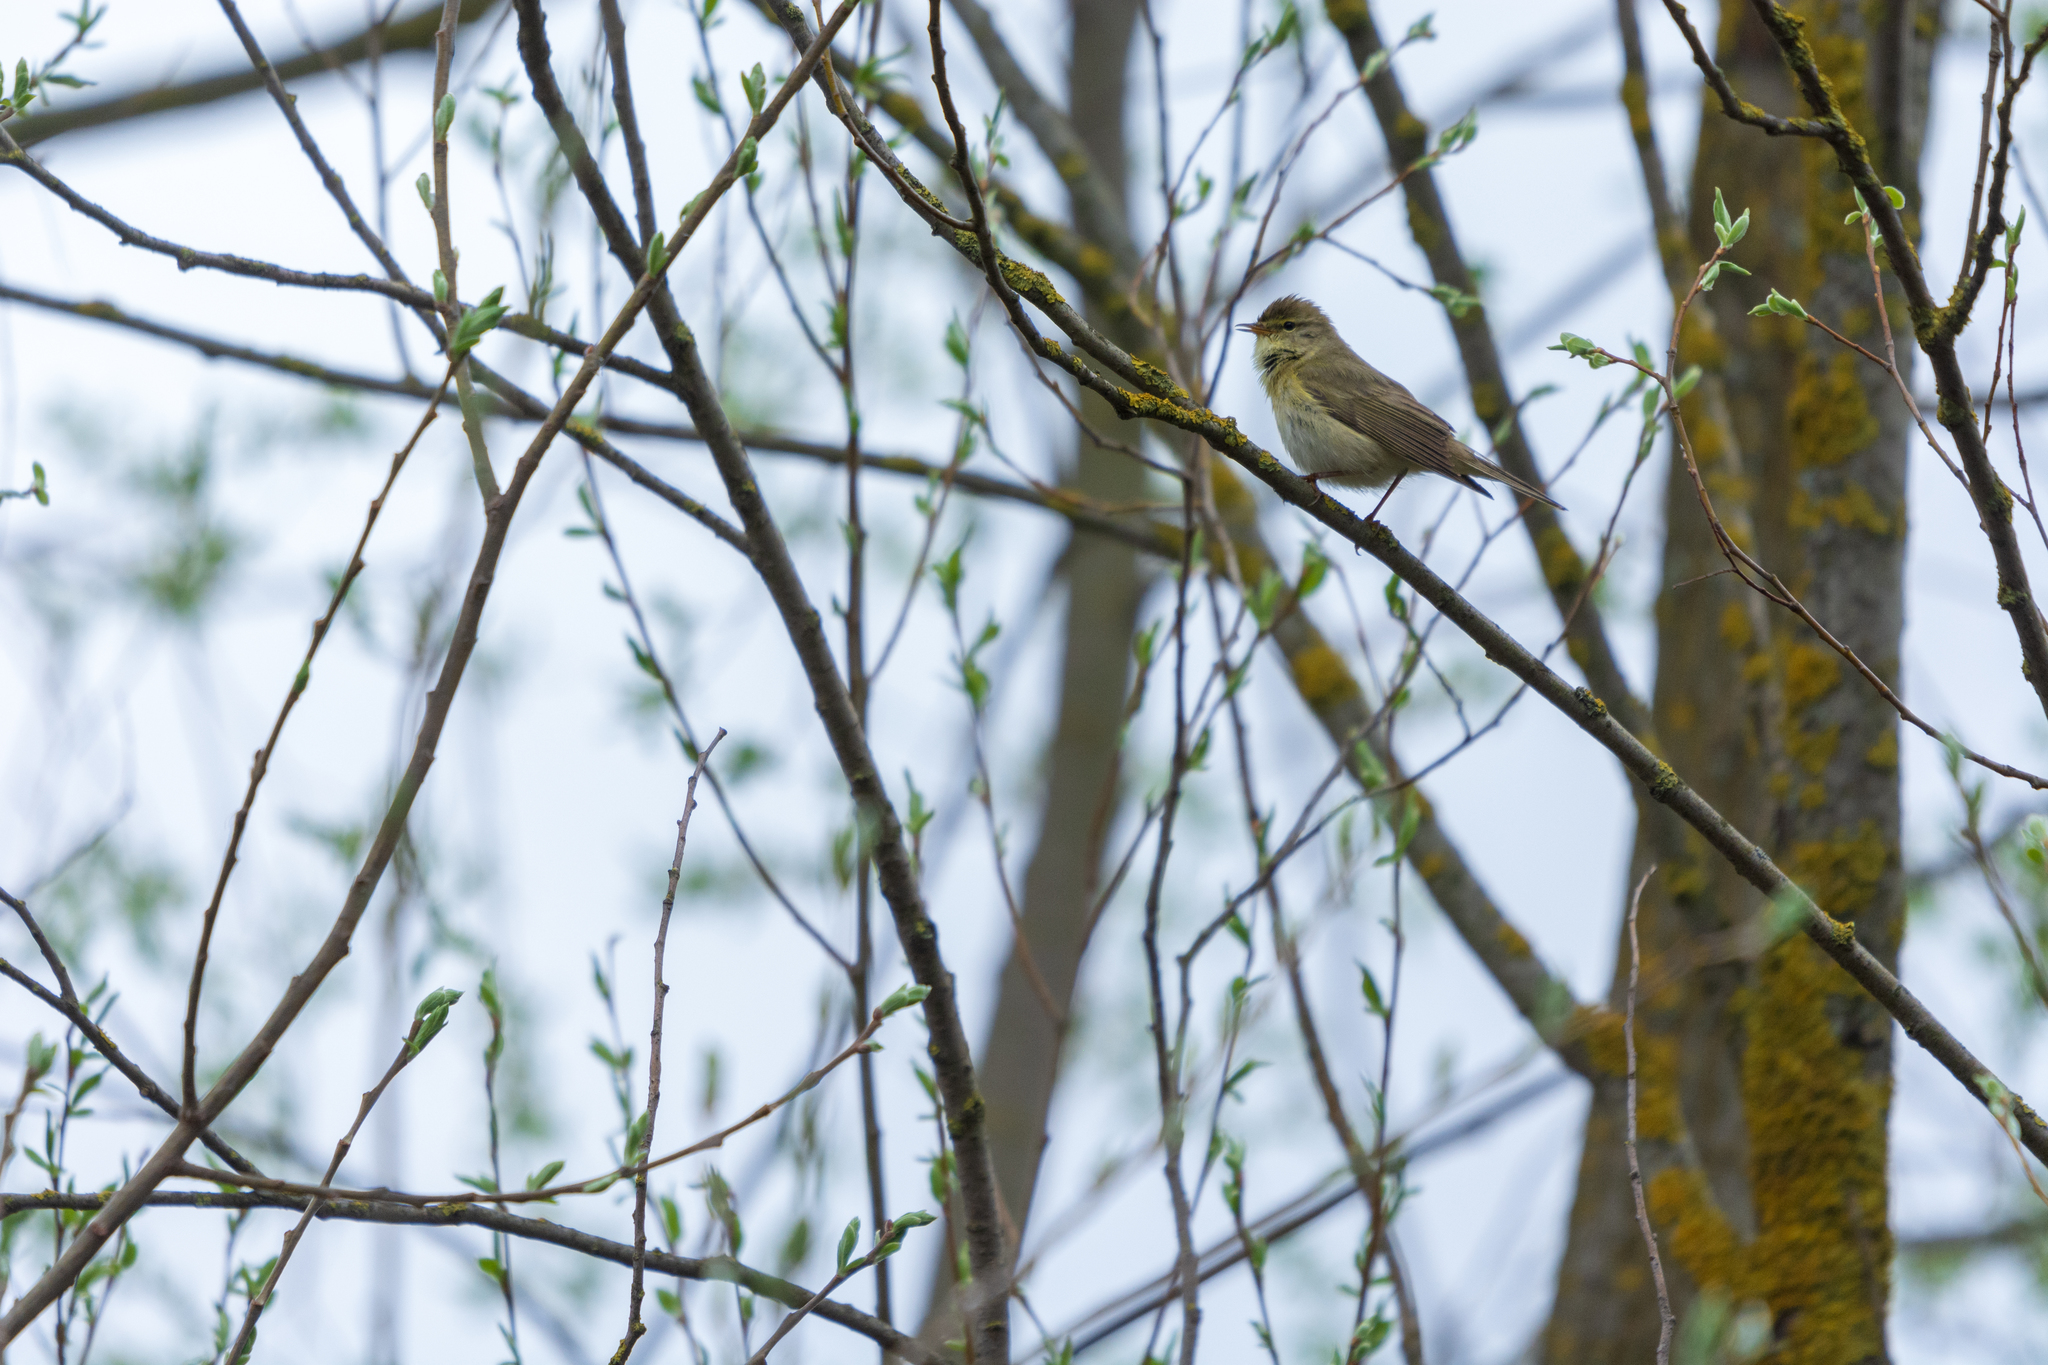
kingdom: Animalia
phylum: Chordata
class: Aves
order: Passeriformes
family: Phylloscopidae
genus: Phylloscopus
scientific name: Phylloscopus trochilus
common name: Willow warbler
